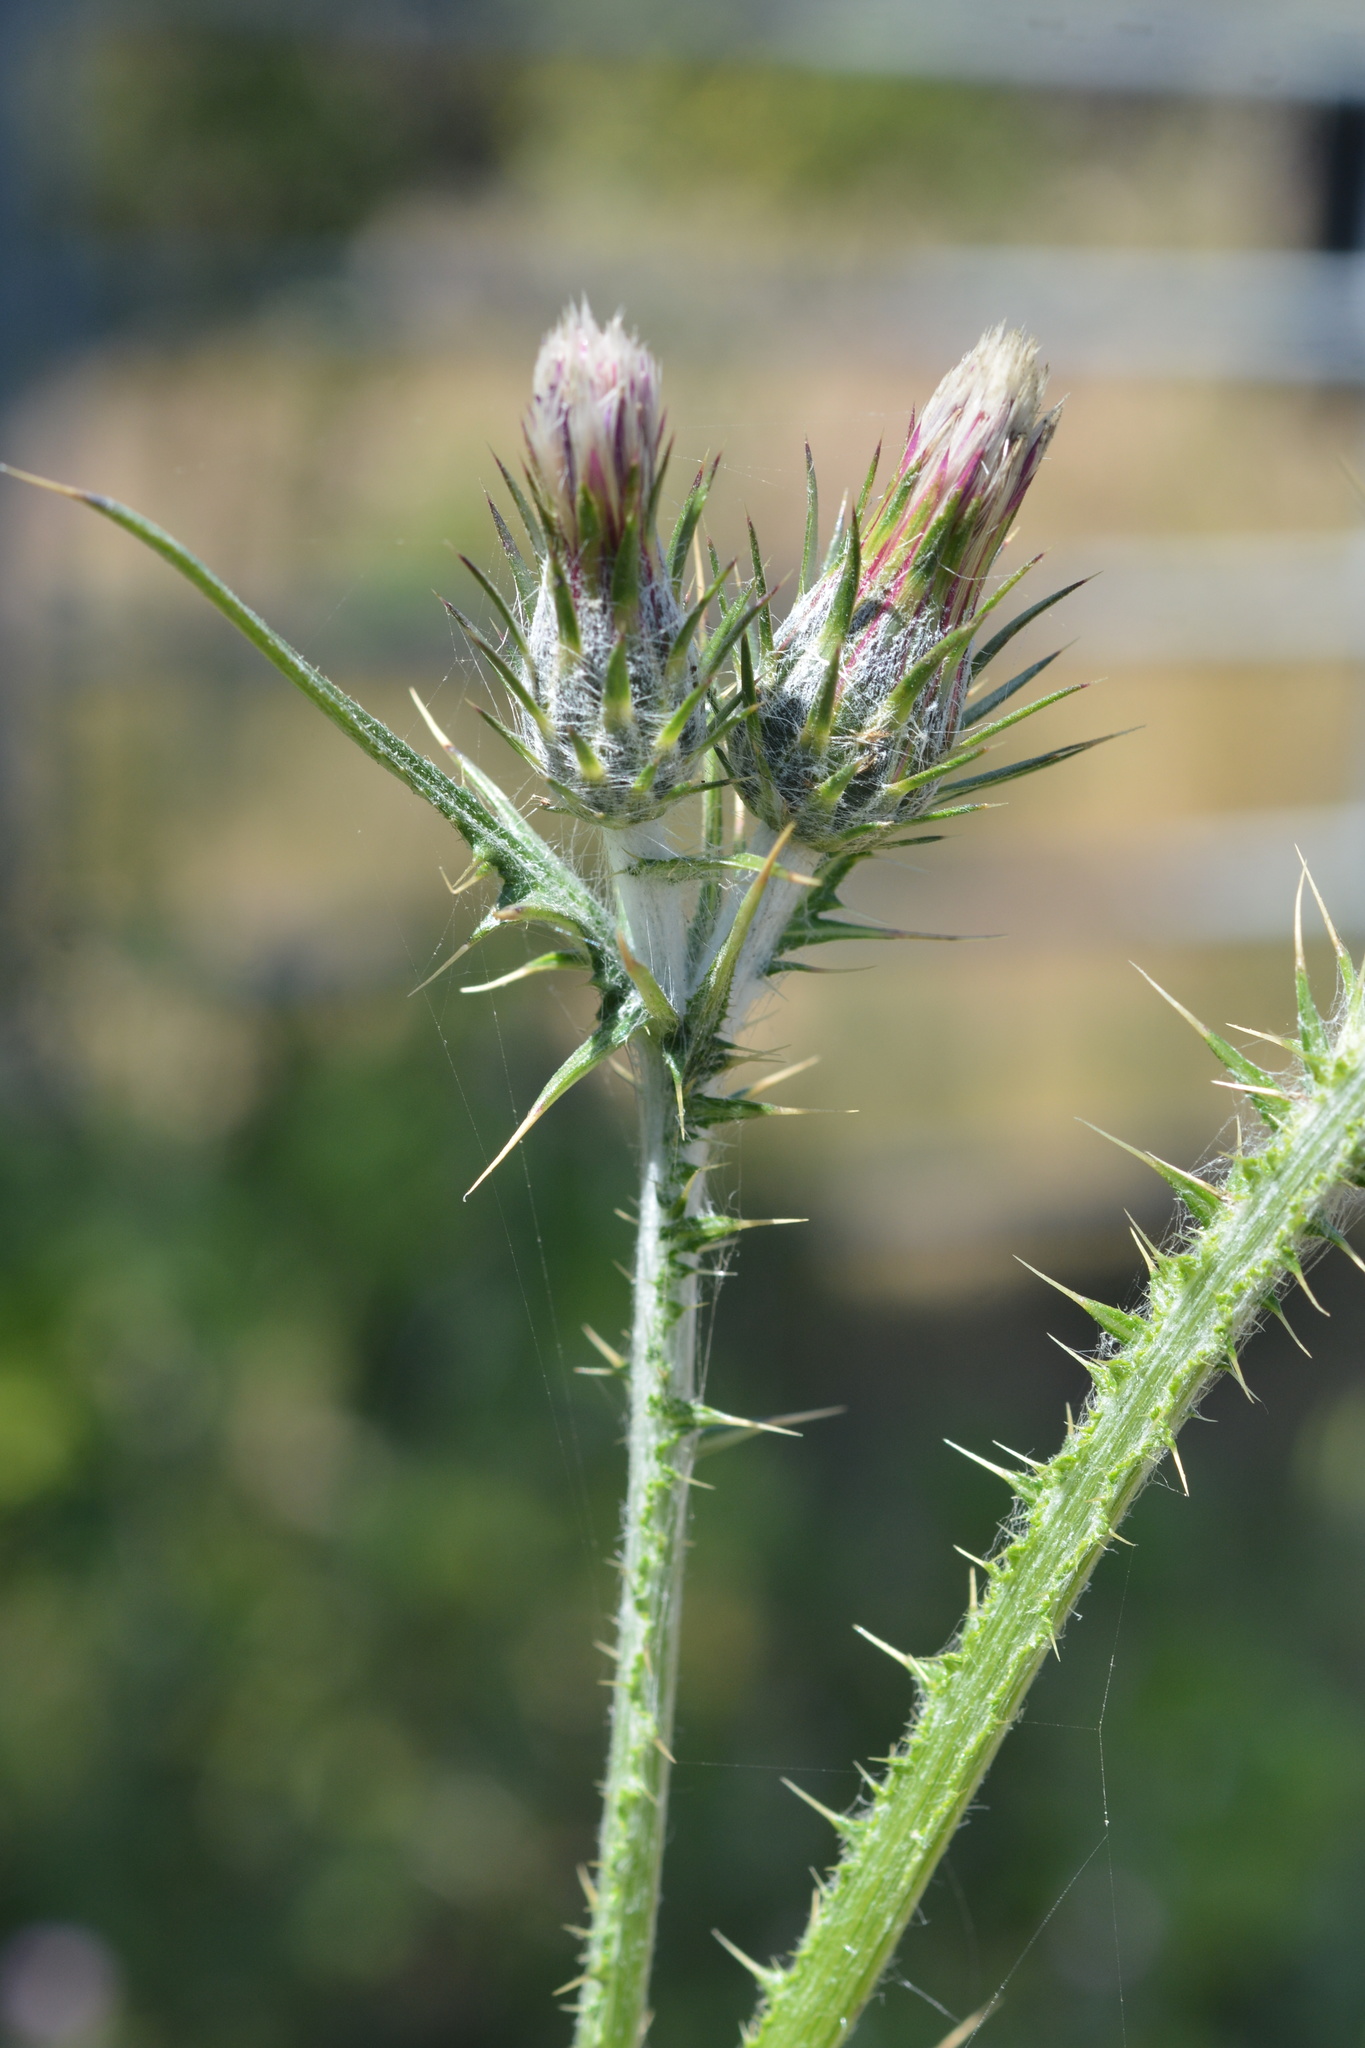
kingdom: Plantae
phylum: Tracheophyta
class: Magnoliopsida
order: Asterales
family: Asteraceae
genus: Carduus
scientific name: Carduus pycnocephalus
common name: Plymouth thistle
